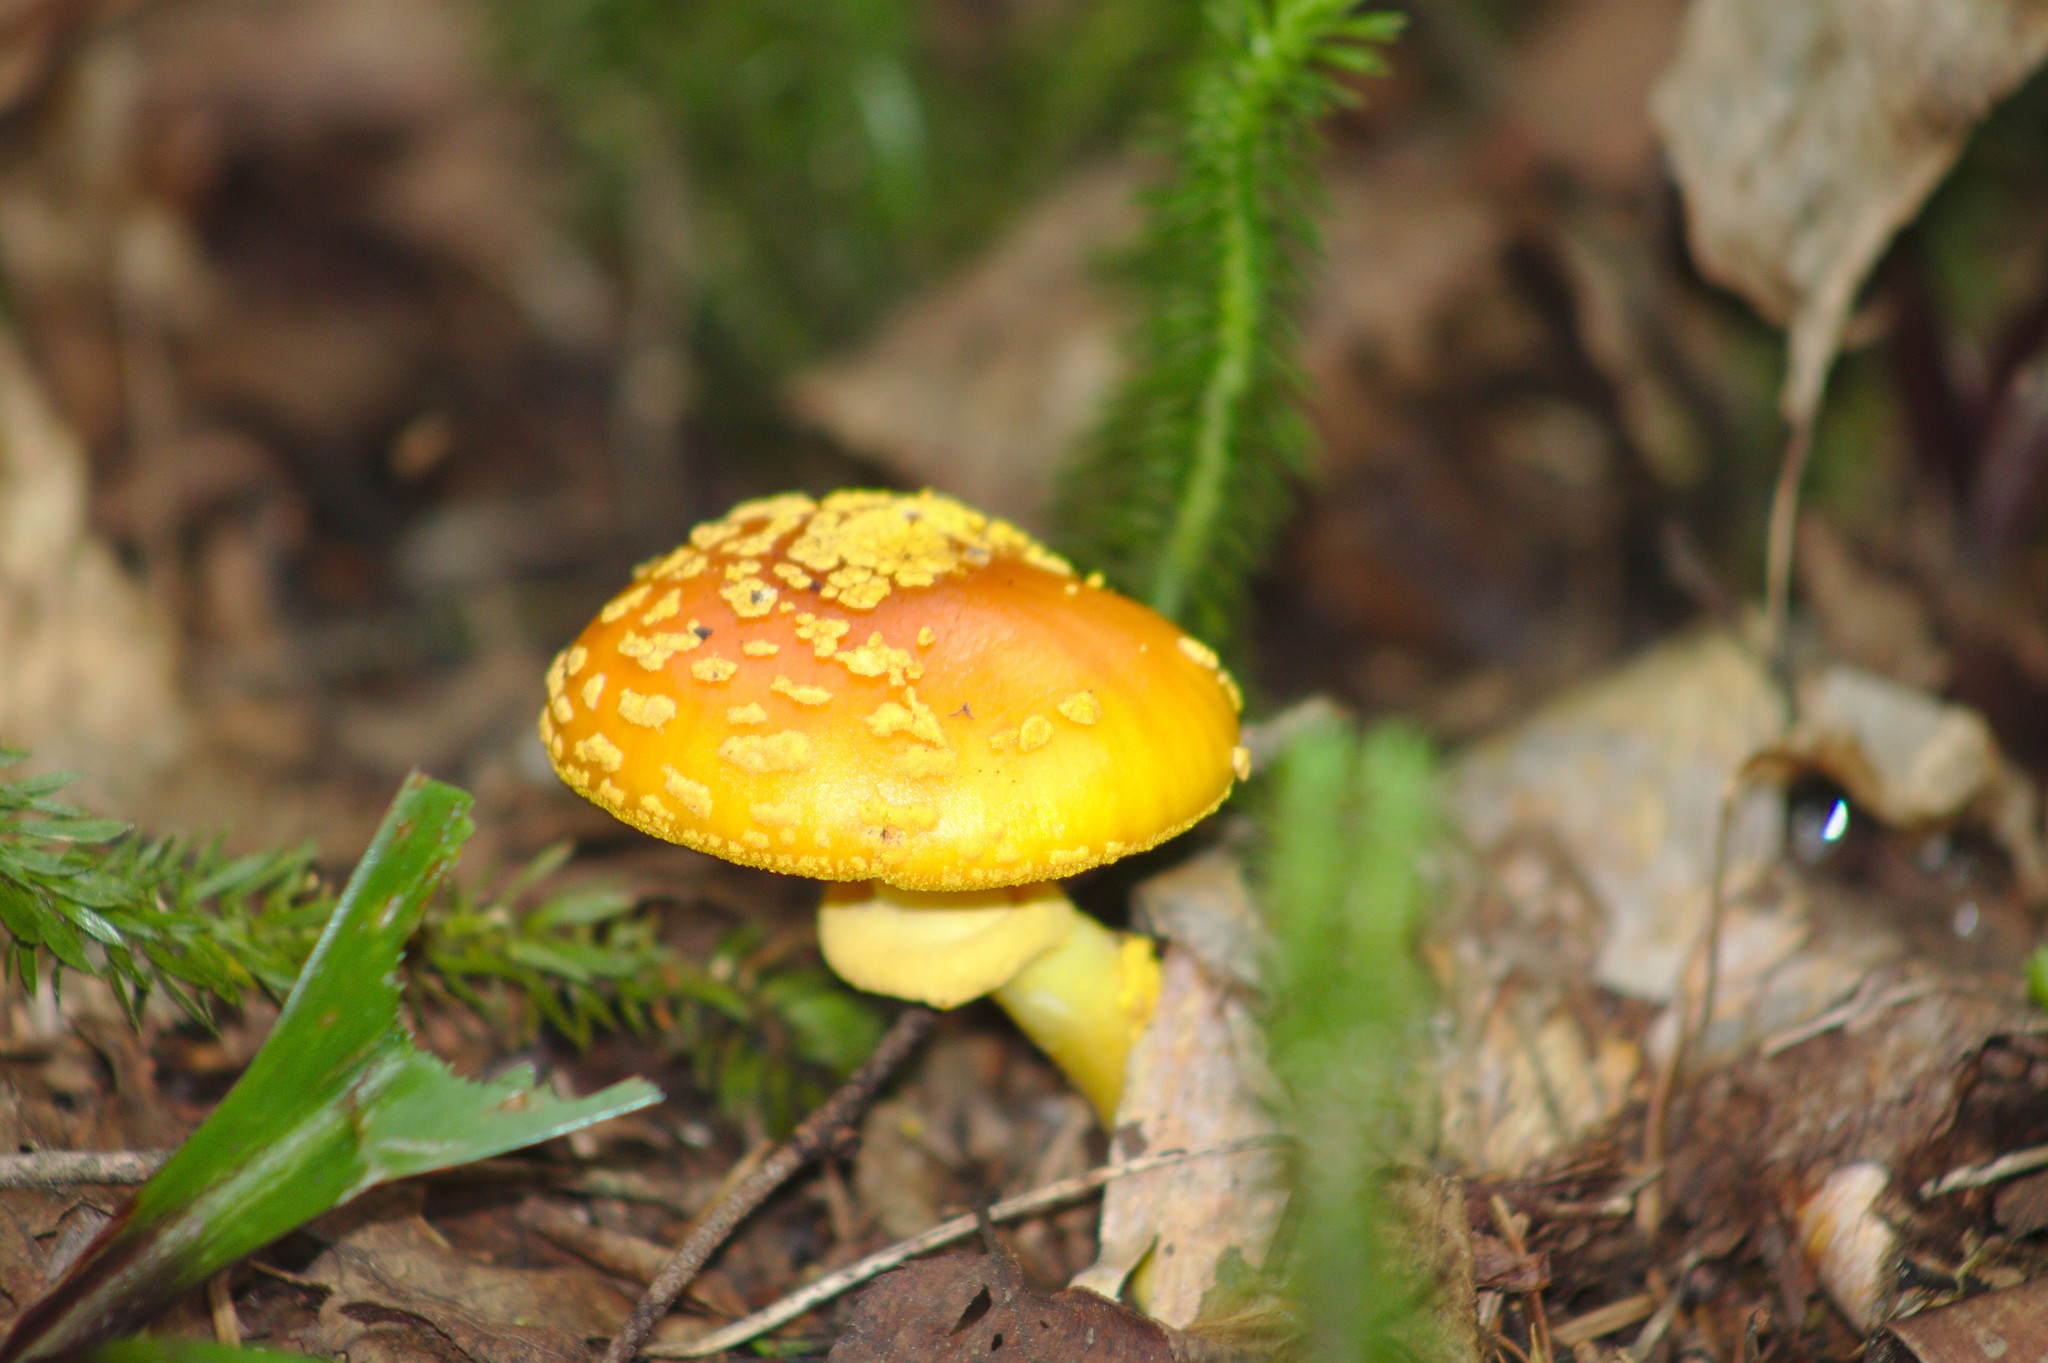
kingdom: Fungi
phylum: Basidiomycota
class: Agaricomycetes
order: Agaricales
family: Amanitaceae
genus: Amanita
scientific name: Amanita flavoconia
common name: Yellow patches
